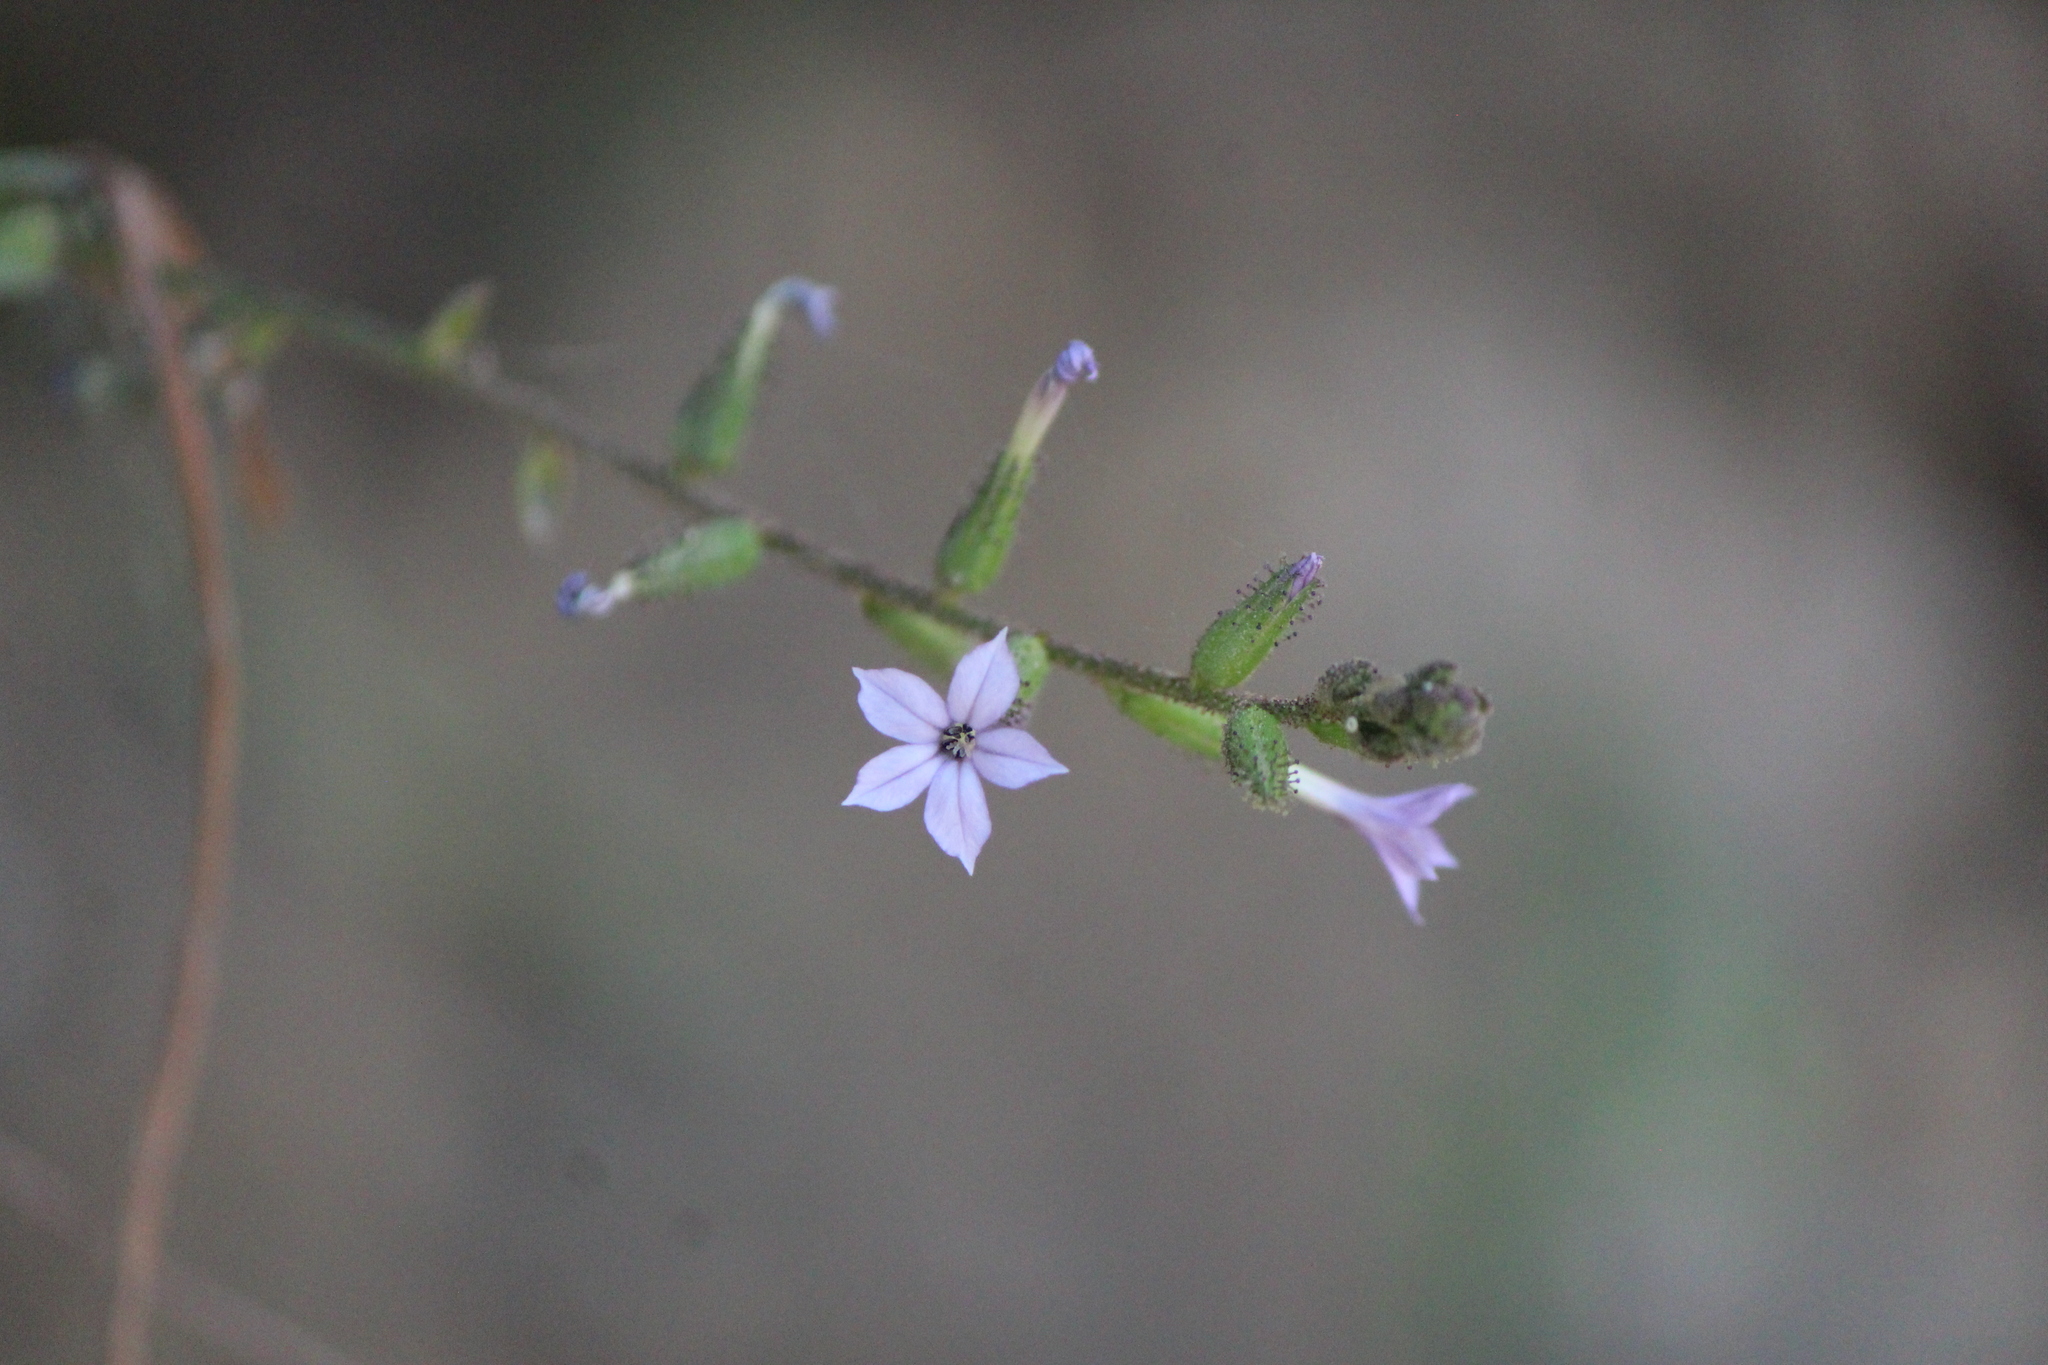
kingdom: Plantae
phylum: Tracheophyta
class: Magnoliopsida
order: Caryophyllales
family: Plumbaginaceae
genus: Plumbago
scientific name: Plumbago pulchella
